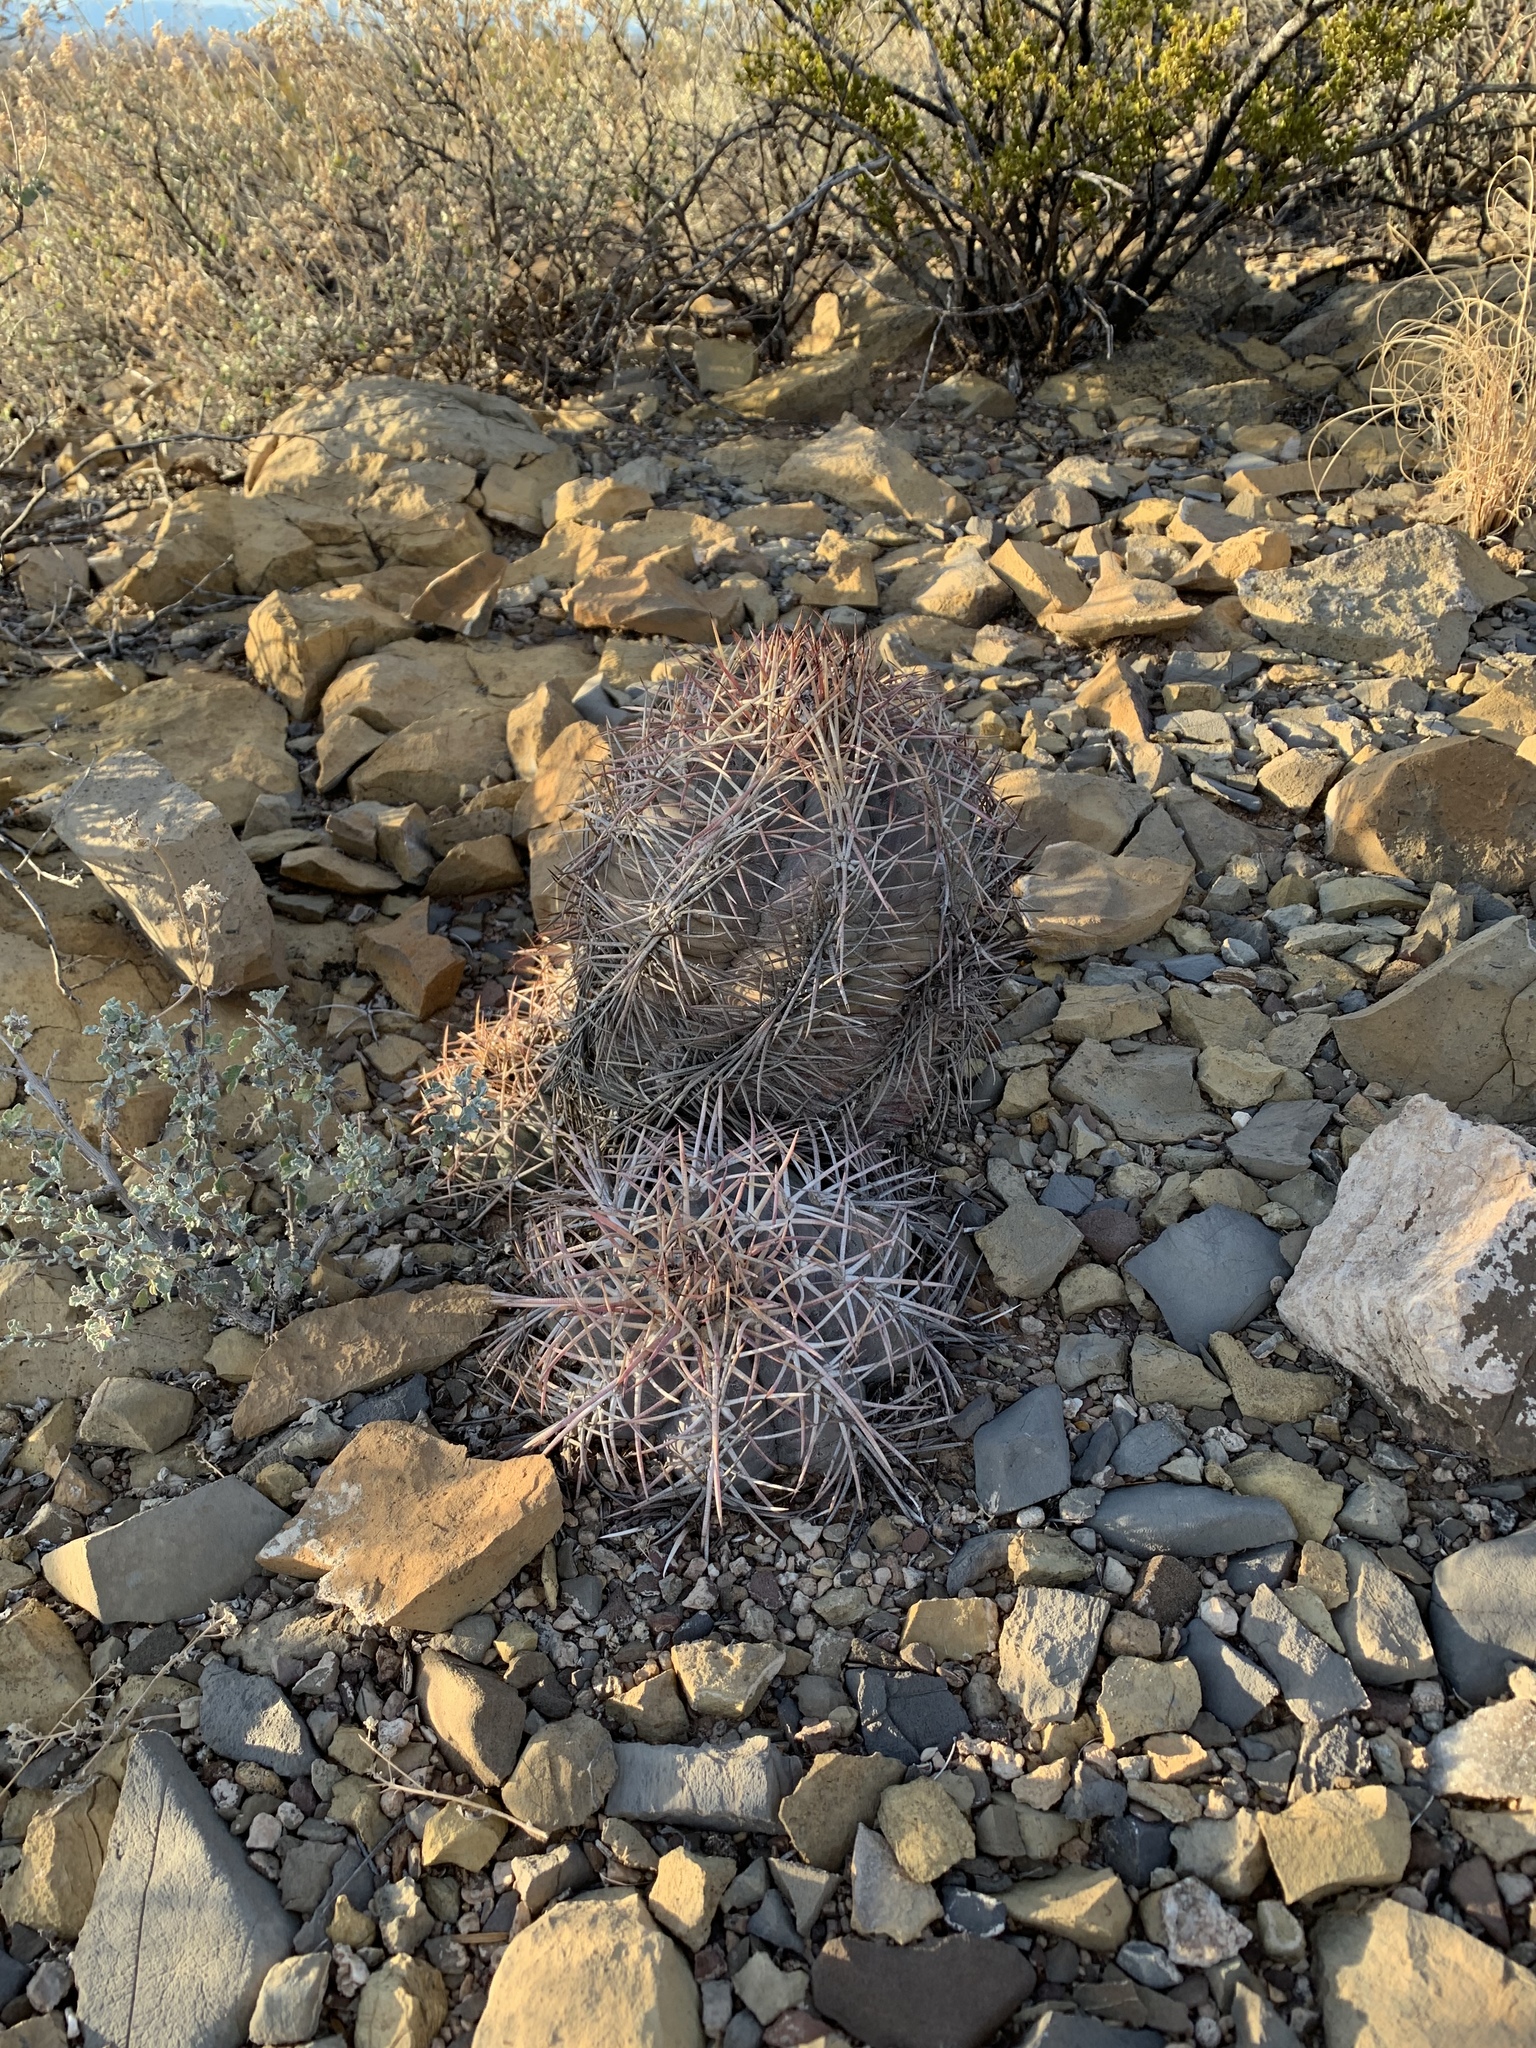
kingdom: Plantae
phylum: Tracheophyta
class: Magnoliopsida
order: Caryophyllales
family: Cactaceae
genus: Echinocactus
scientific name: Echinocactus horizonthalonius
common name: Devilshead
